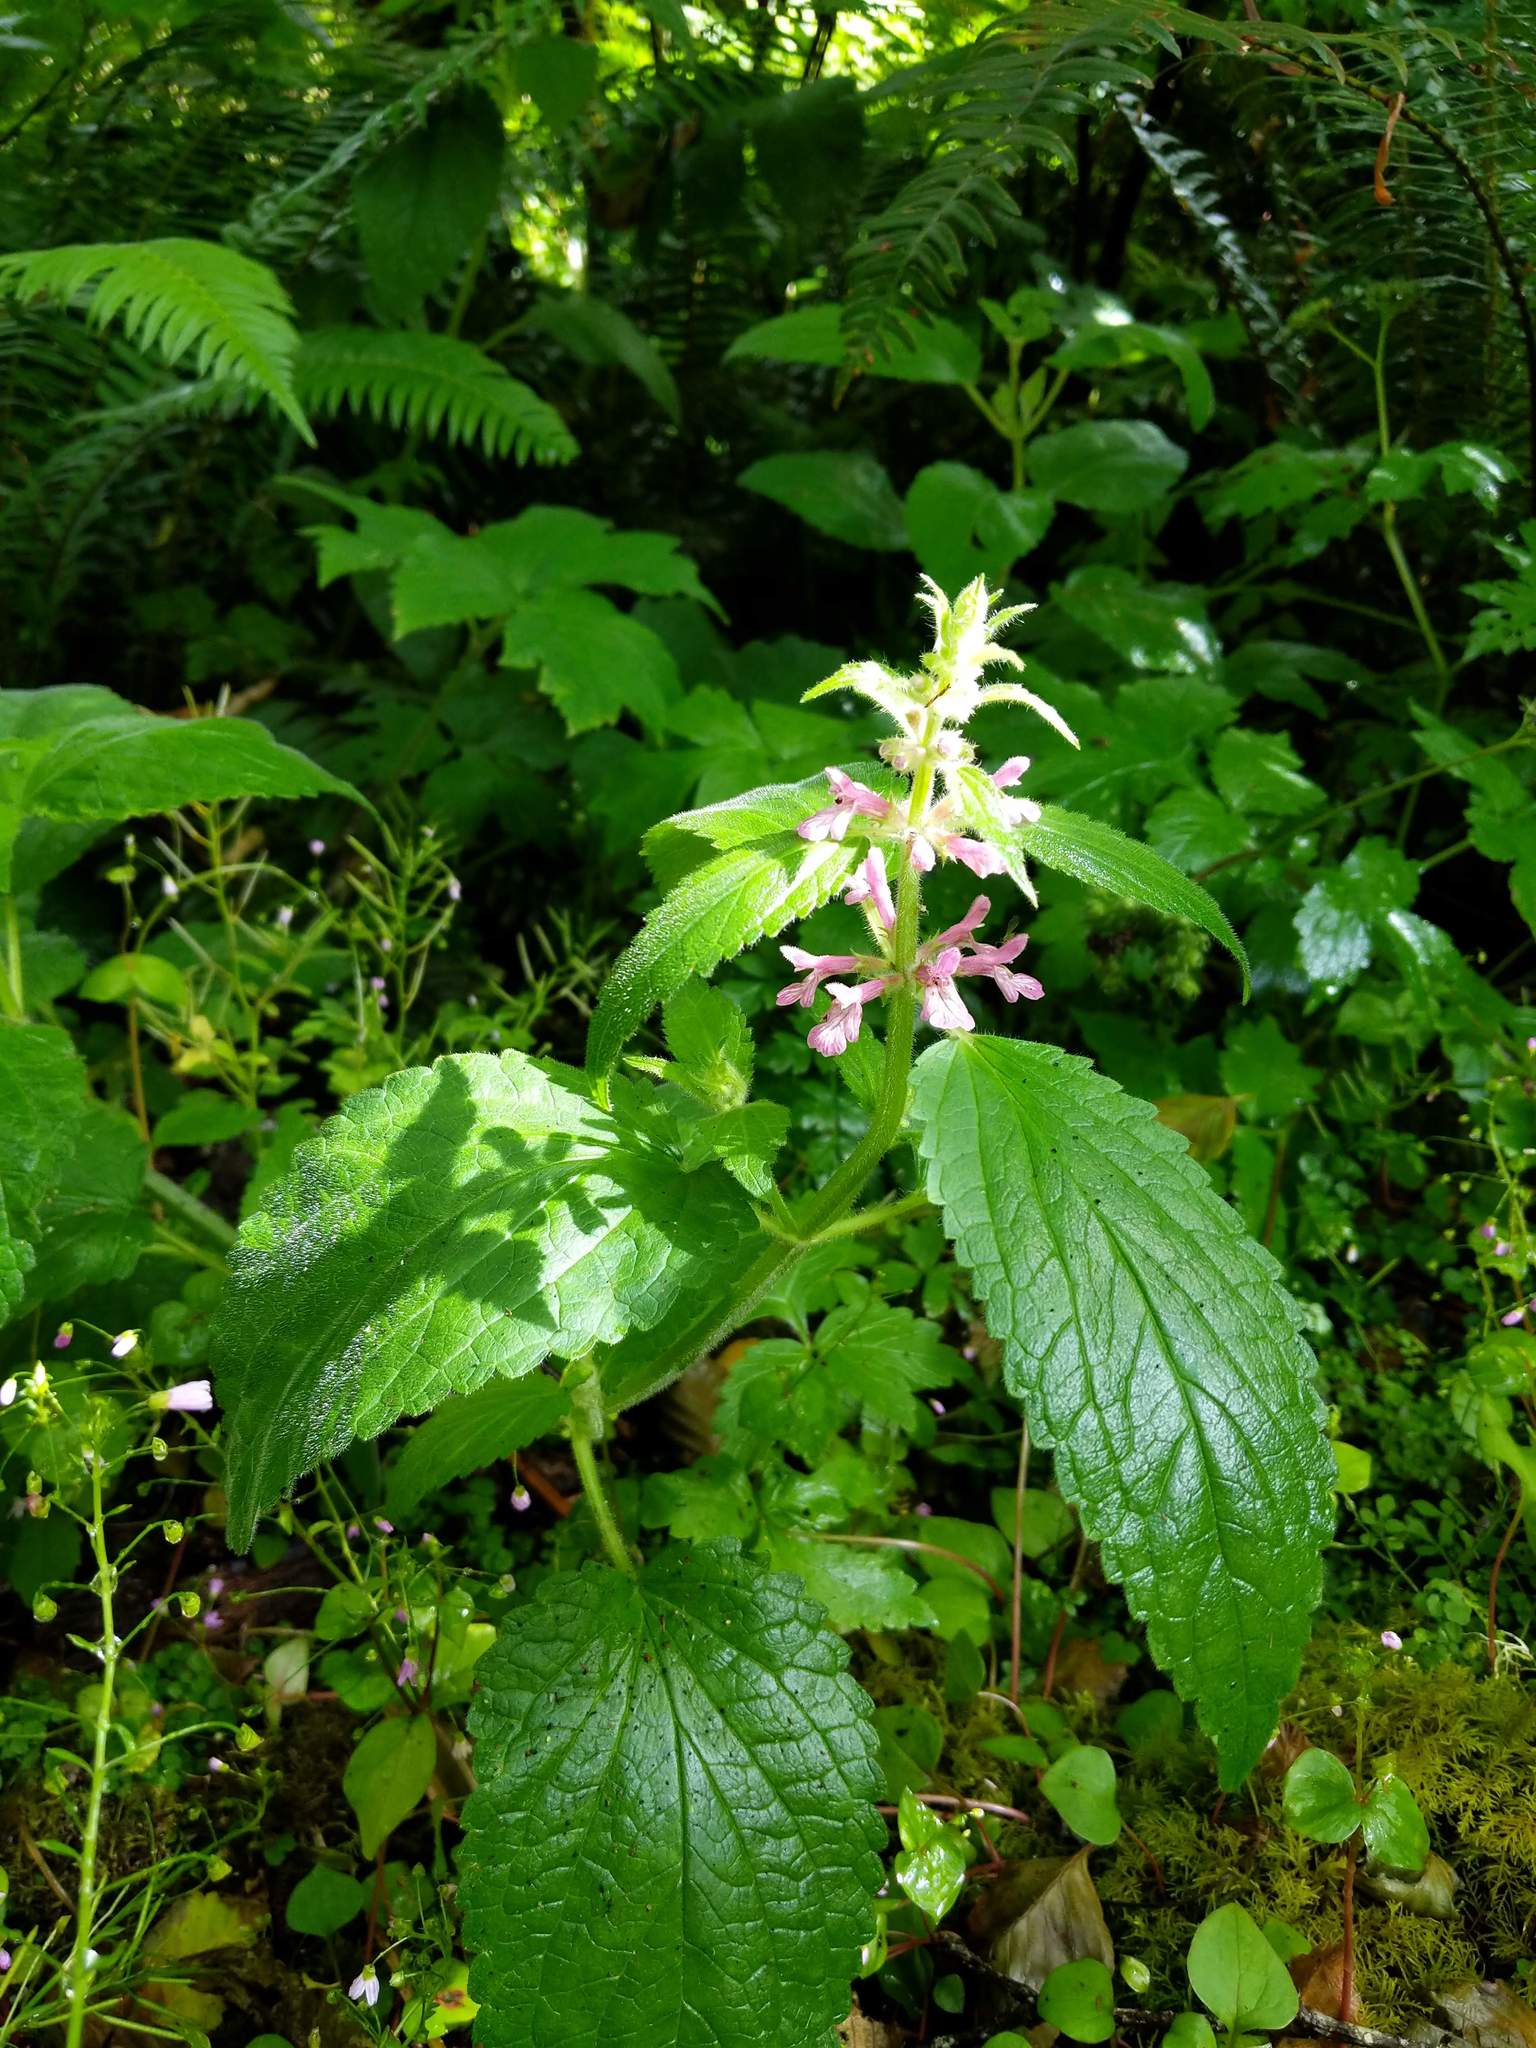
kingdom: Plantae
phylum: Tracheophyta
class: Magnoliopsida
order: Lamiales
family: Lamiaceae
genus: Stachys
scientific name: Stachys mexicana
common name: Mexican hedge-nettle
